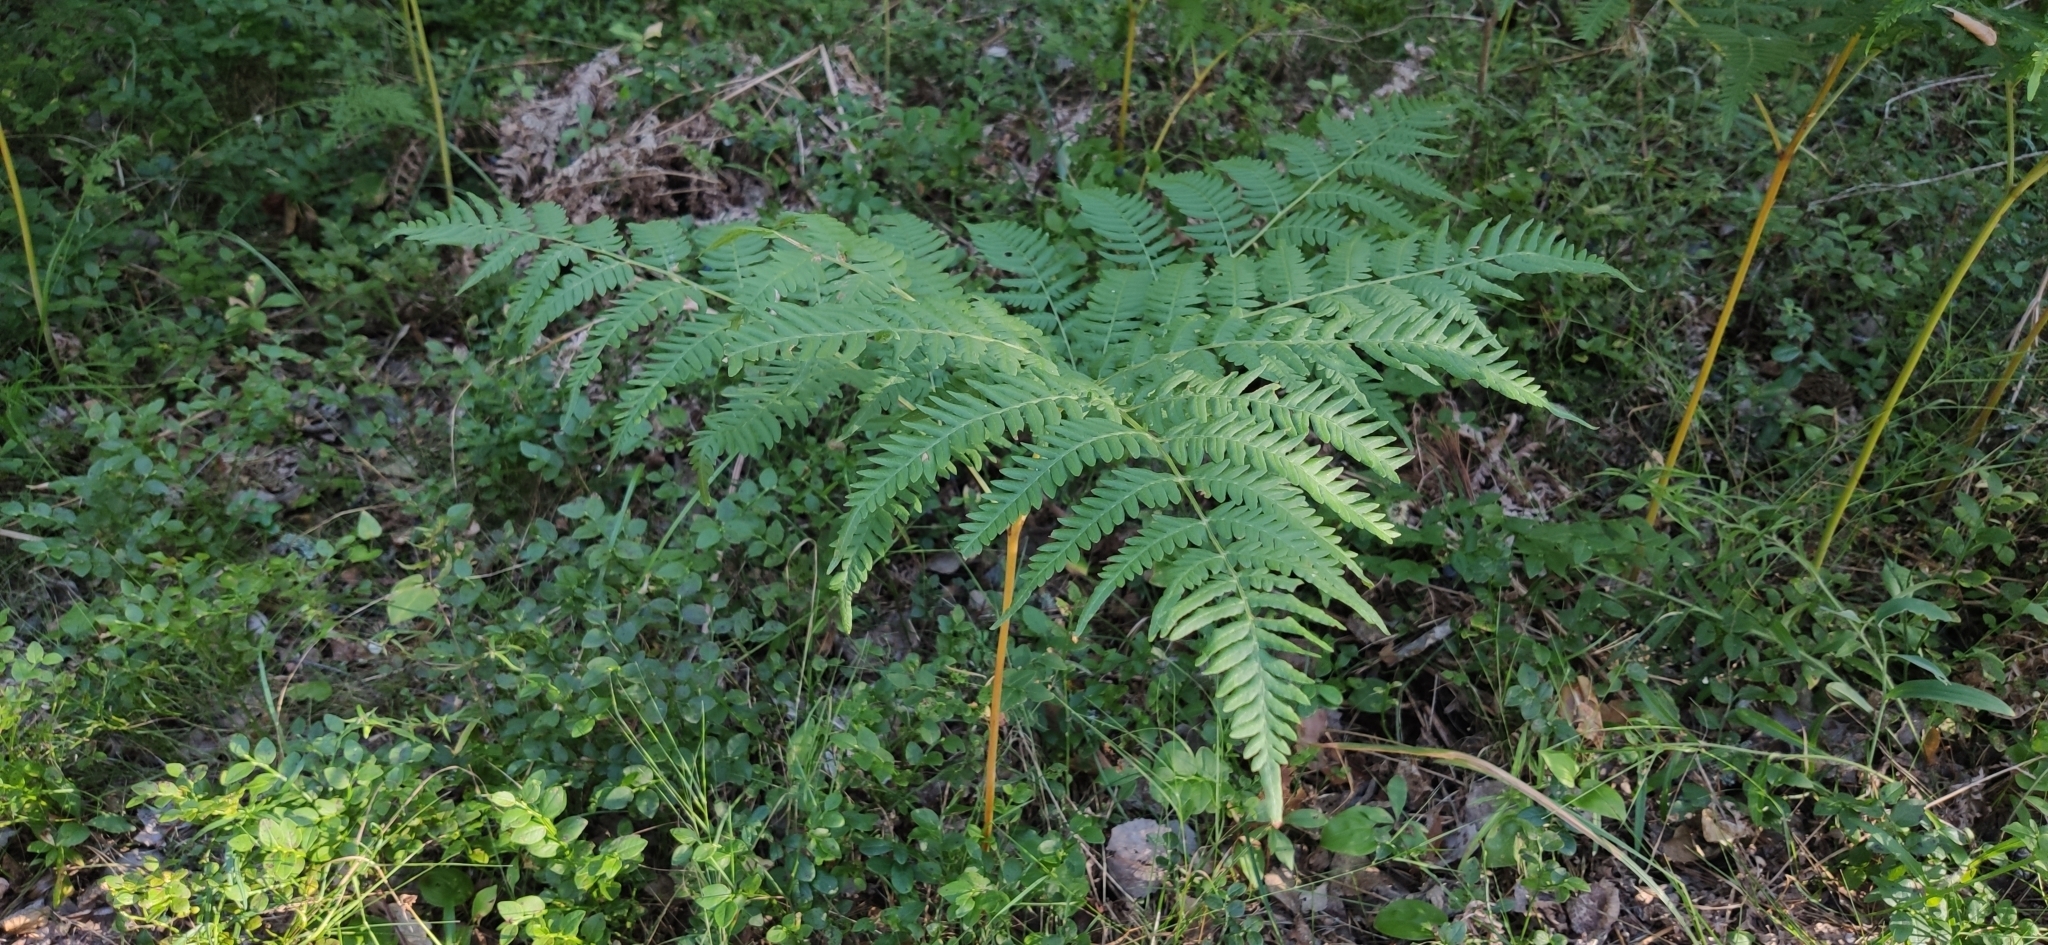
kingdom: Plantae
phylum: Tracheophyta
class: Polypodiopsida
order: Polypodiales
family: Dennstaedtiaceae
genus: Pteridium
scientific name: Pteridium aquilinum
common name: Bracken
